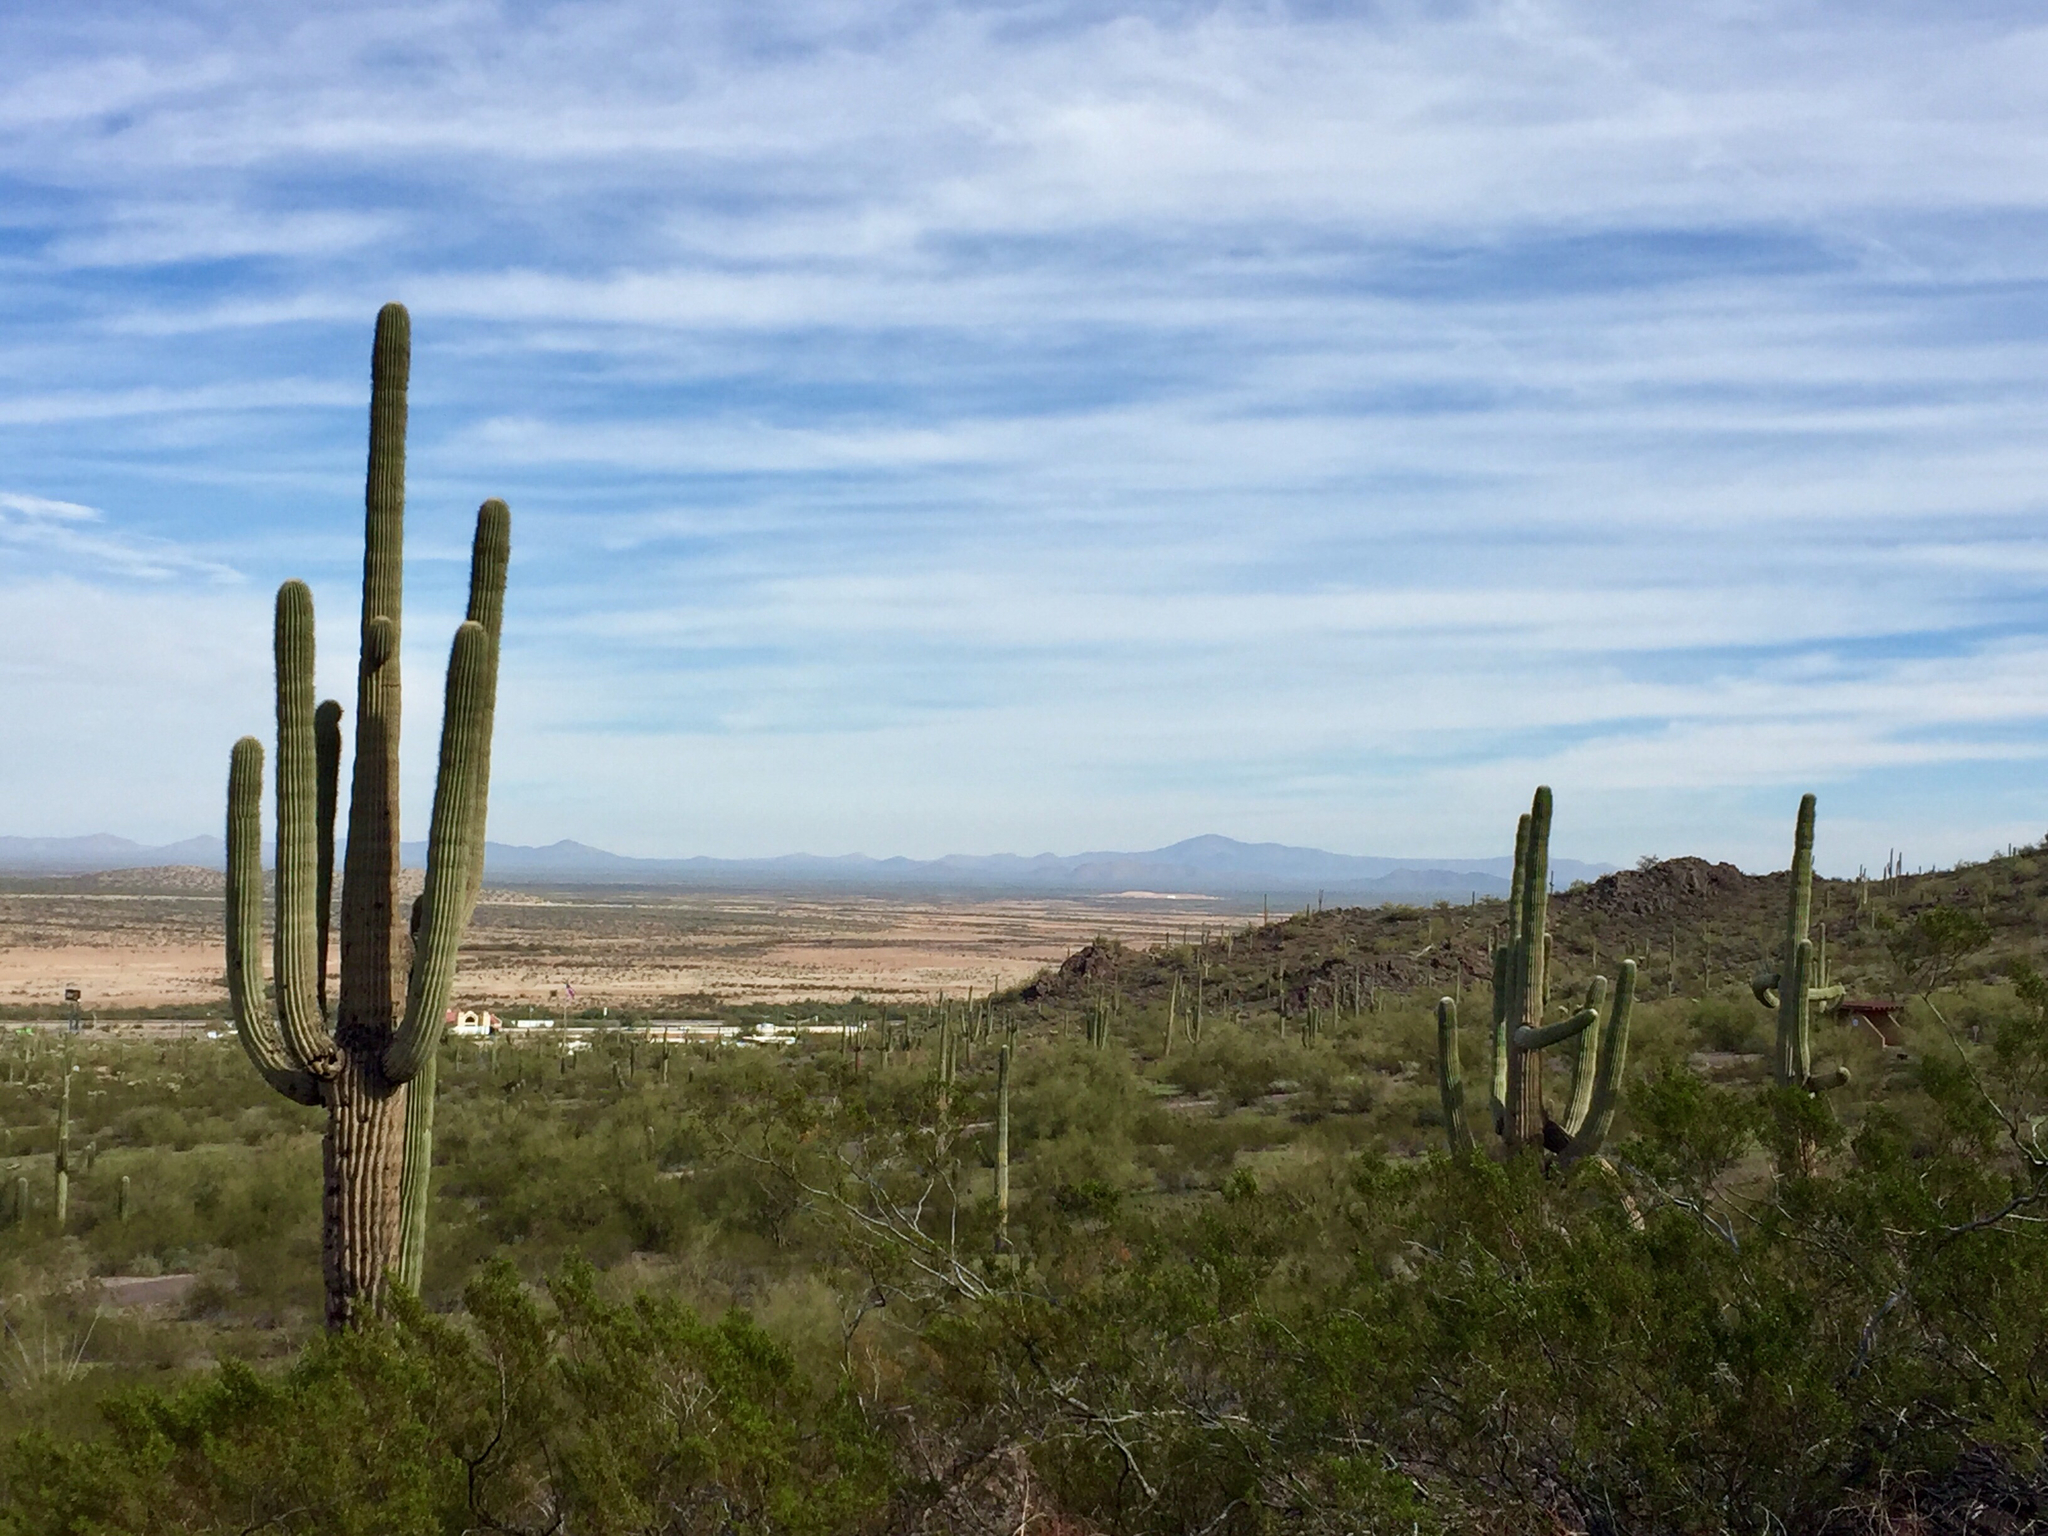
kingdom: Plantae
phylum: Tracheophyta
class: Magnoliopsida
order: Caryophyllales
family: Cactaceae
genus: Carnegiea
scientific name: Carnegiea gigantea
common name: Saguaro
